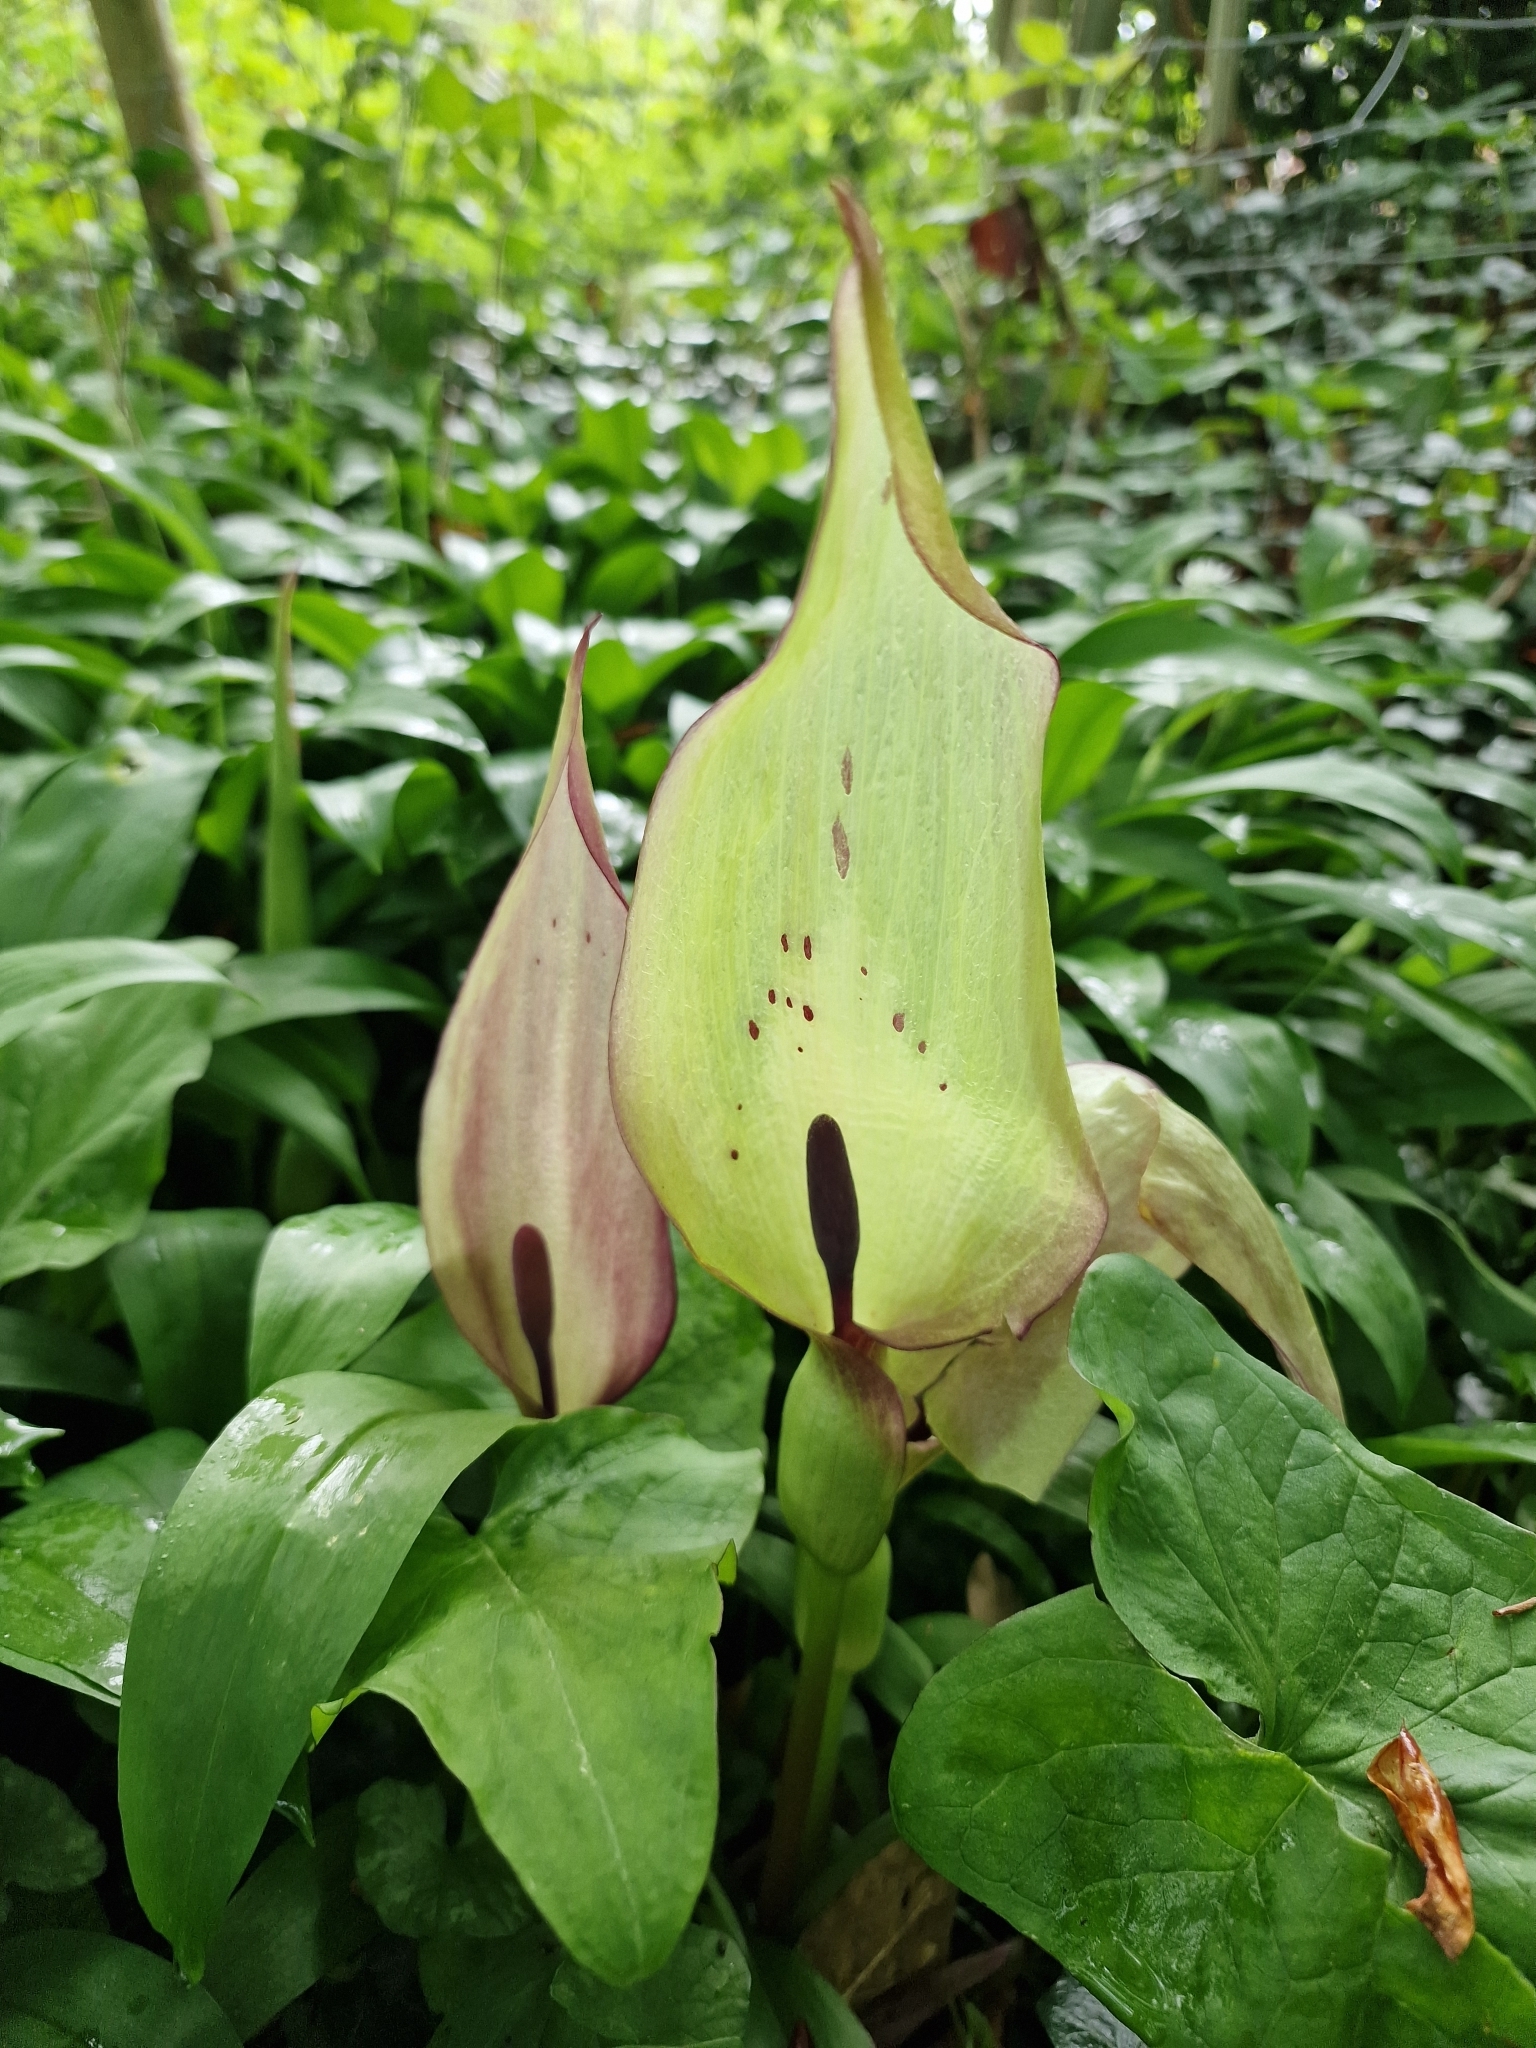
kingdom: Plantae
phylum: Tracheophyta
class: Liliopsida
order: Alismatales
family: Araceae
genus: Arum
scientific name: Arum maculatum
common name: Lords-and-ladies
